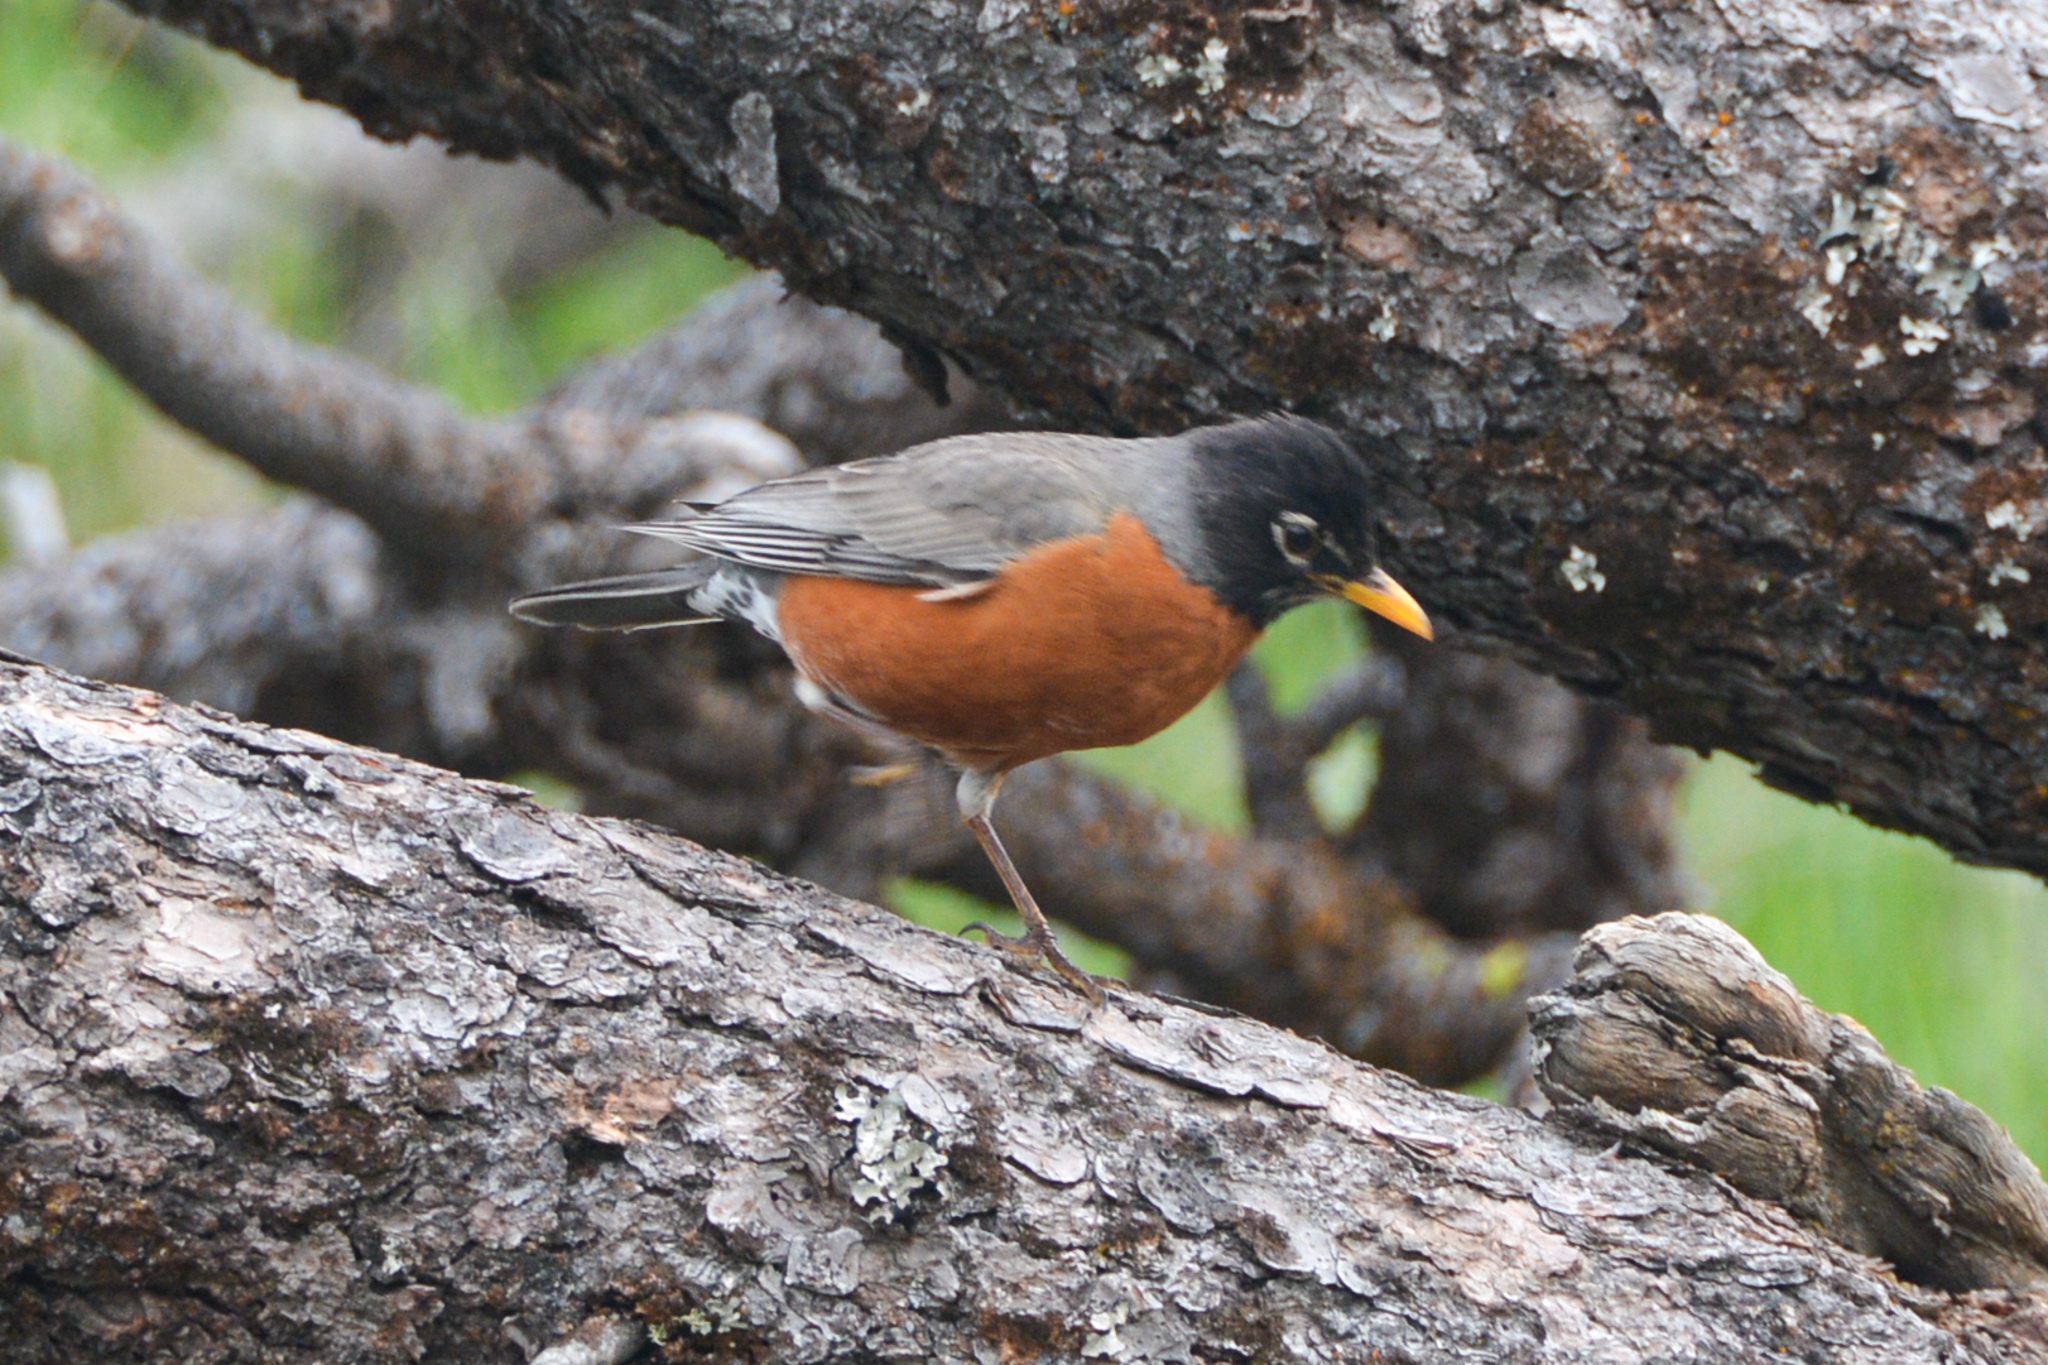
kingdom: Animalia
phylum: Chordata
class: Aves
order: Passeriformes
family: Turdidae
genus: Turdus
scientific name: Turdus migratorius
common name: American robin
